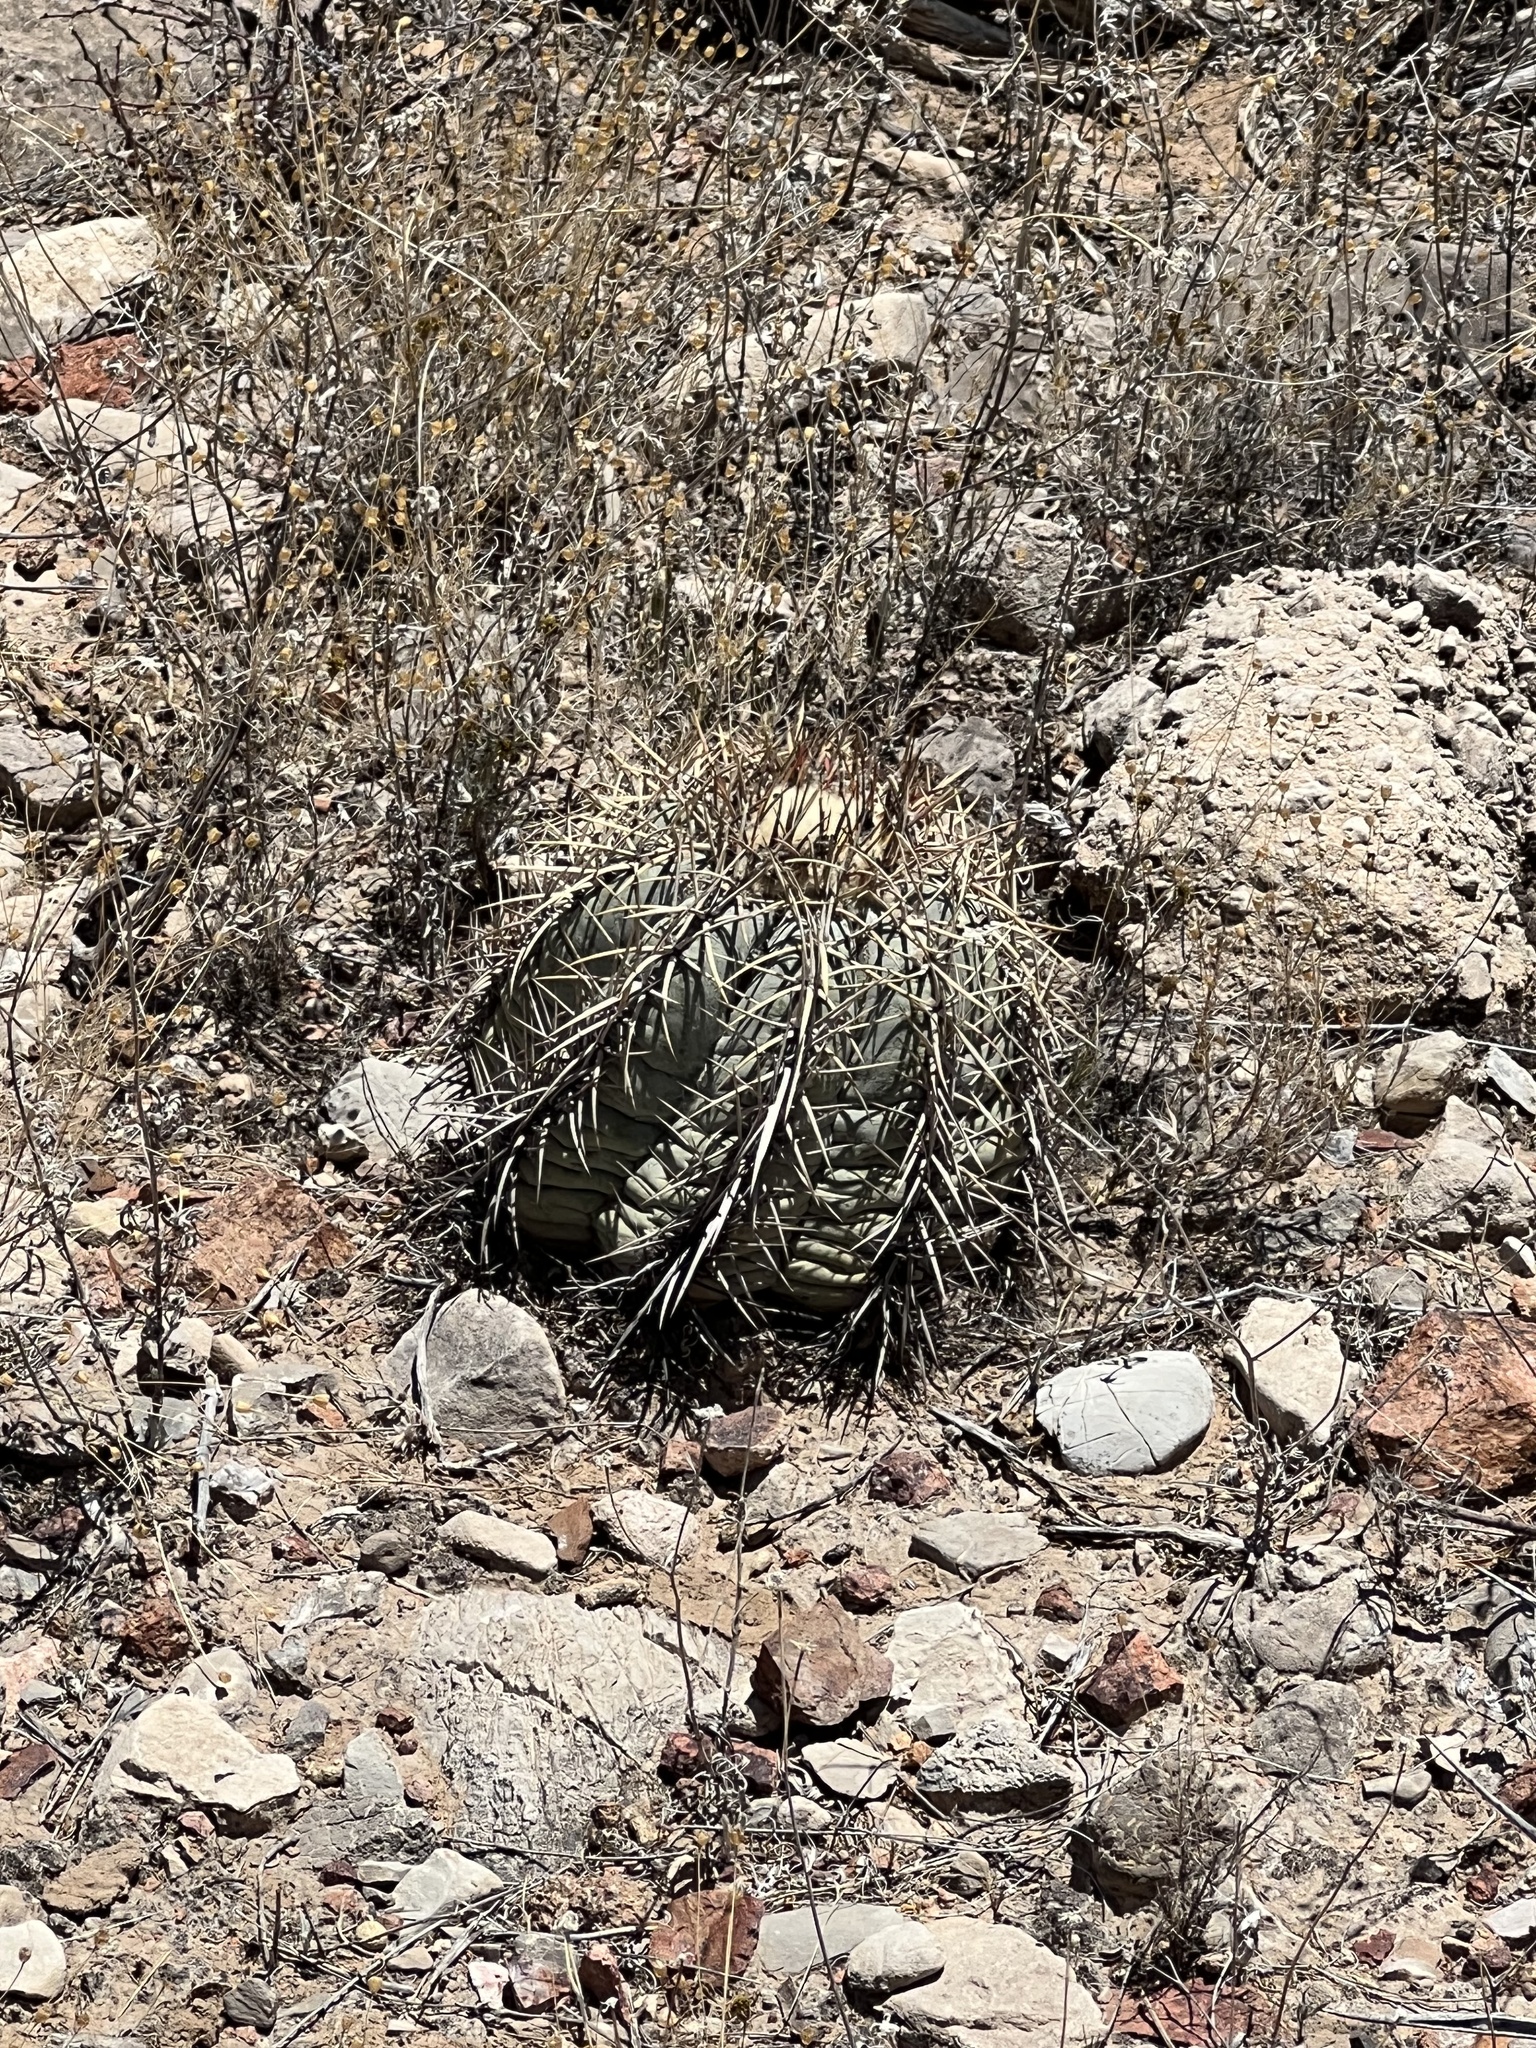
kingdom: Plantae
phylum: Tracheophyta
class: Magnoliopsida
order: Caryophyllales
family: Cactaceae
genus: Echinocactus
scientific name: Echinocactus horizonthalonius
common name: Devilshead
